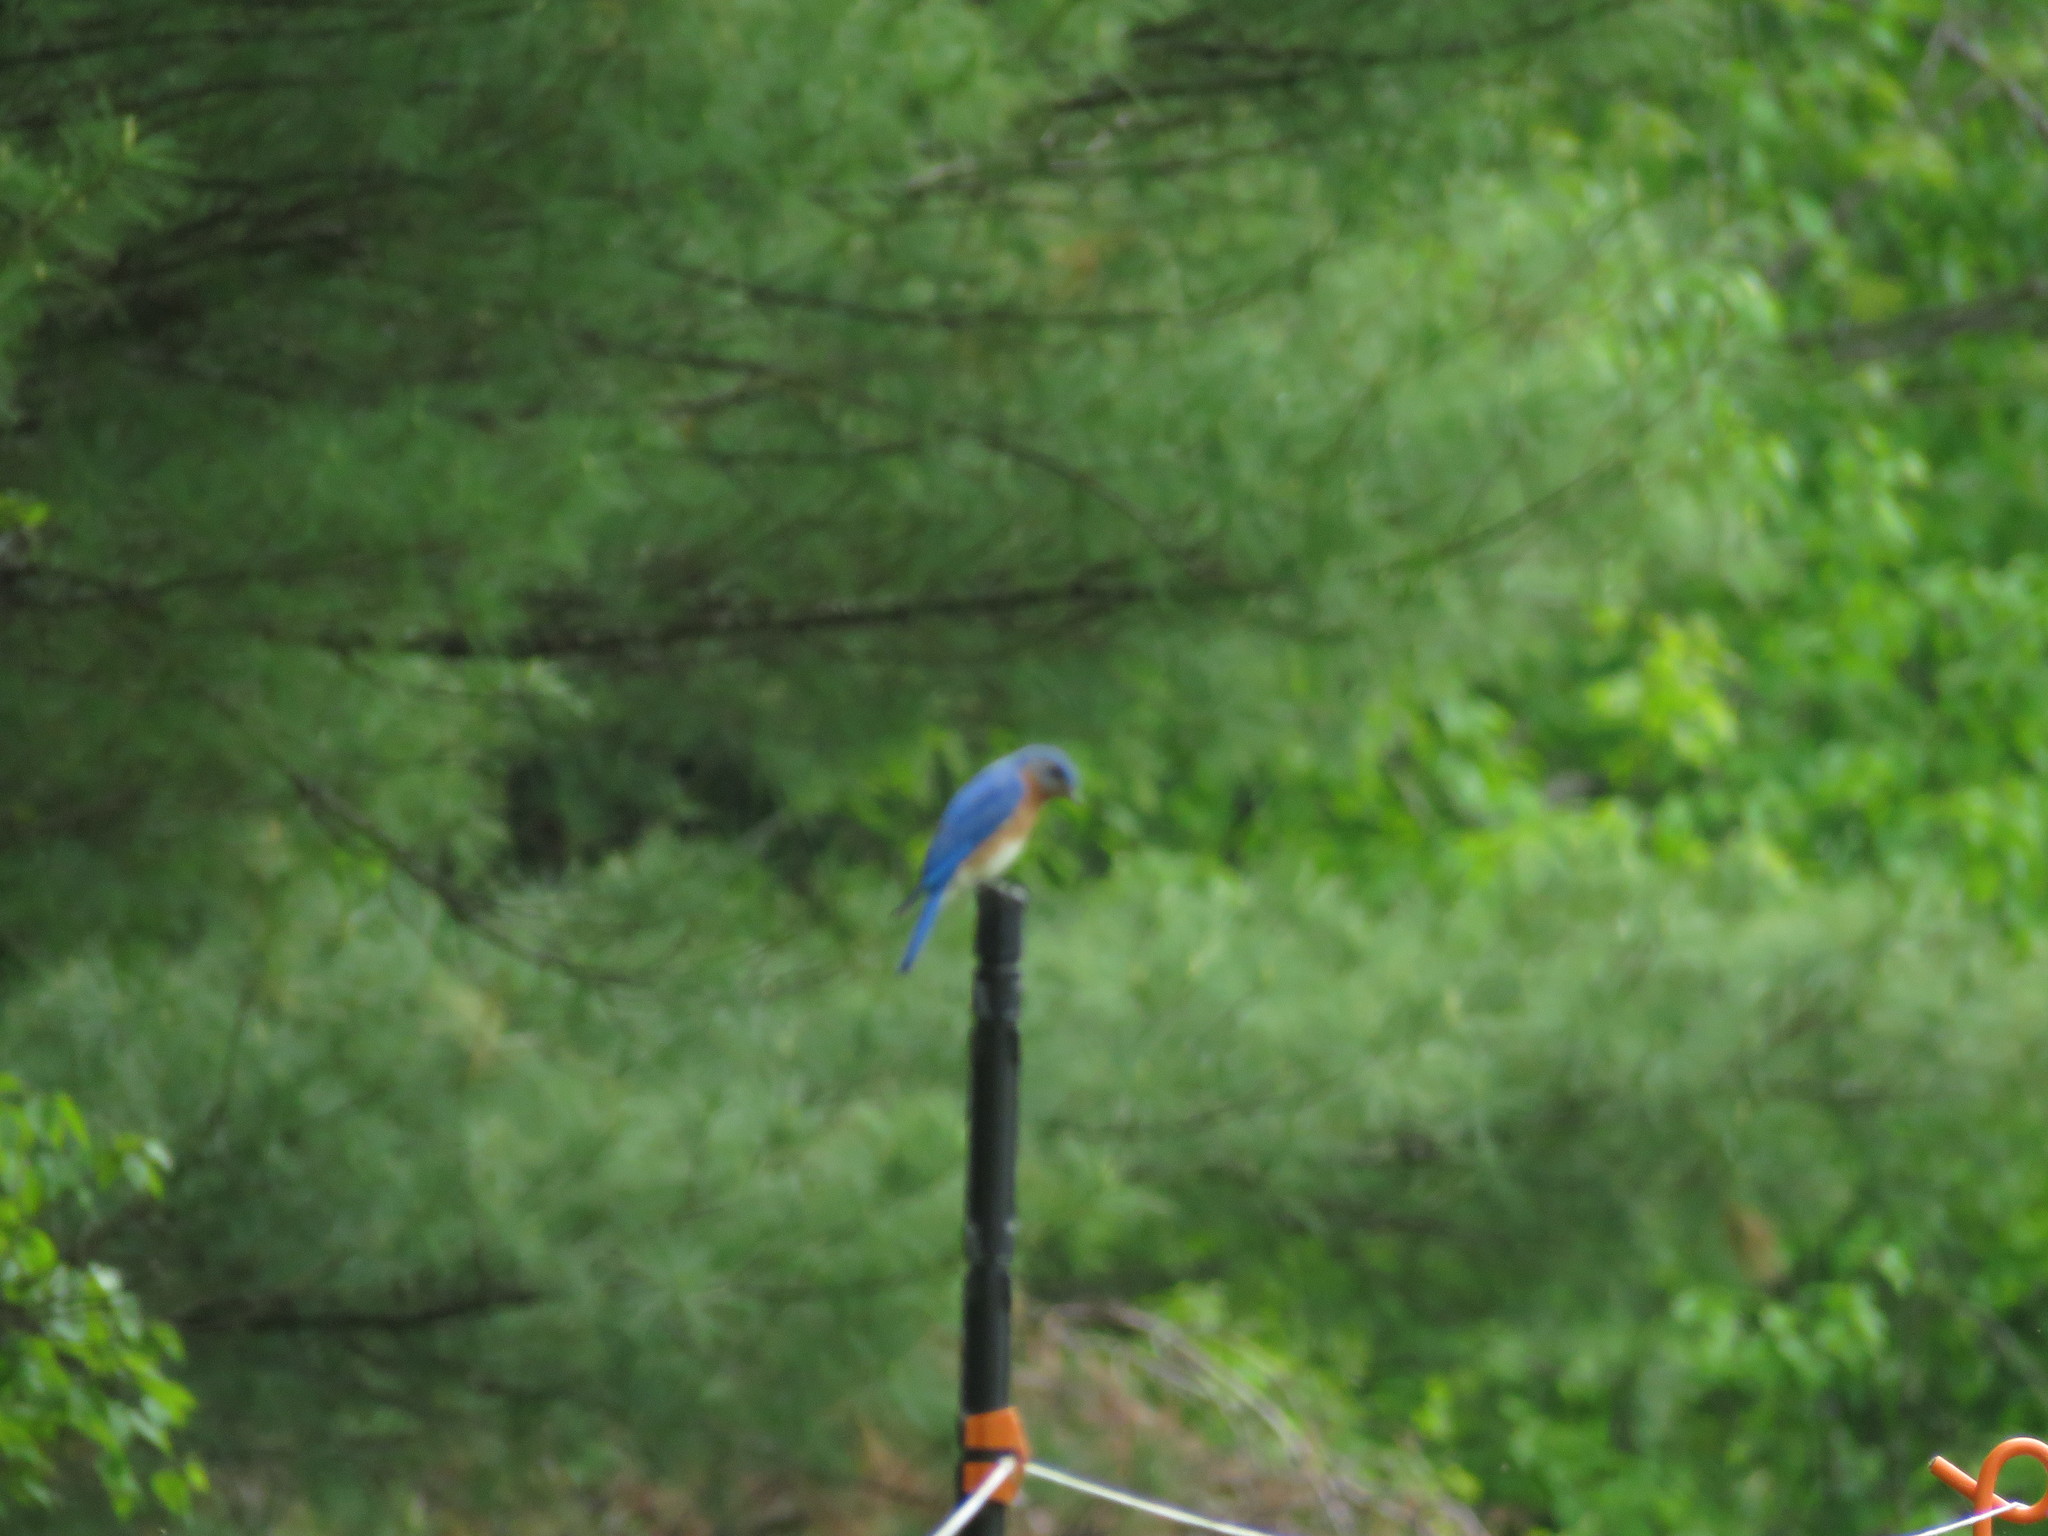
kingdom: Animalia
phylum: Chordata
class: Aves
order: Passeriformes
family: Turdidae
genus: Sialia
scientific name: Sialia sialis
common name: Eastern bluebird
